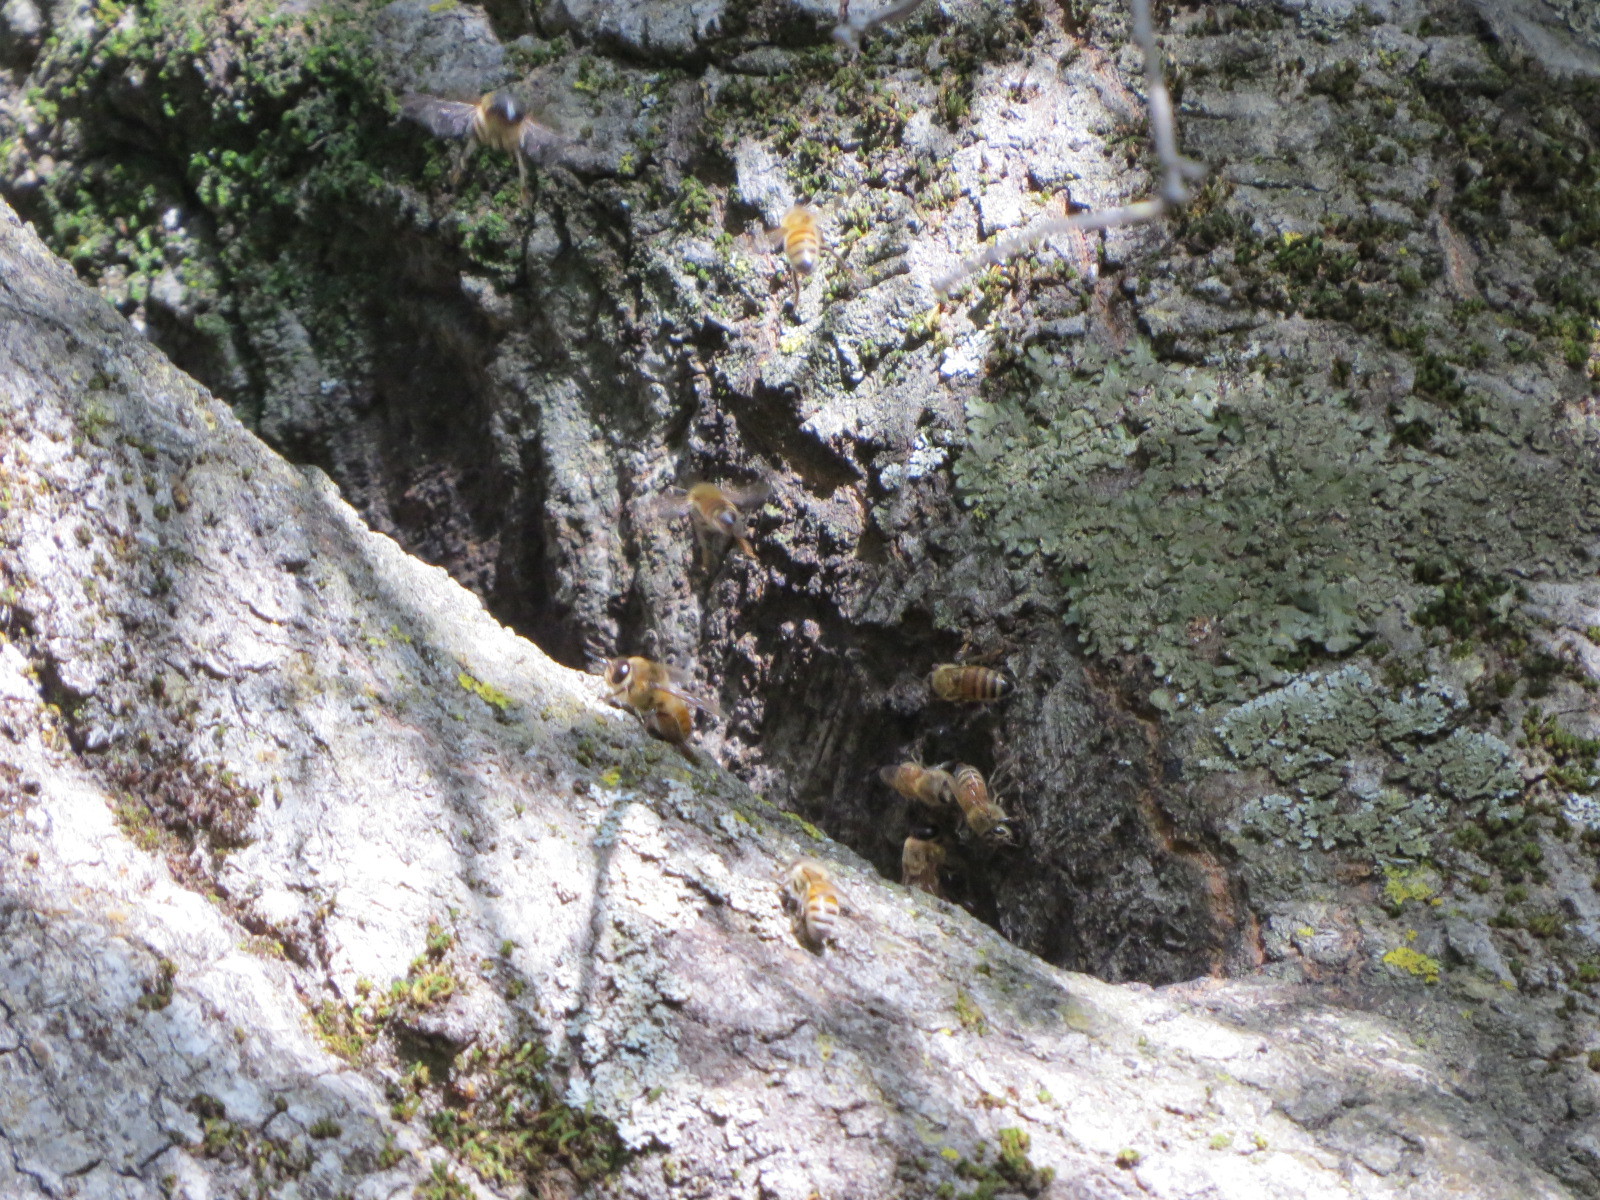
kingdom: Animalia
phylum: Arthropoda
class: Insecta
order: Hymenoptera
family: Apidae
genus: Apis
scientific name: Apis mellifera
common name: Honey bee
